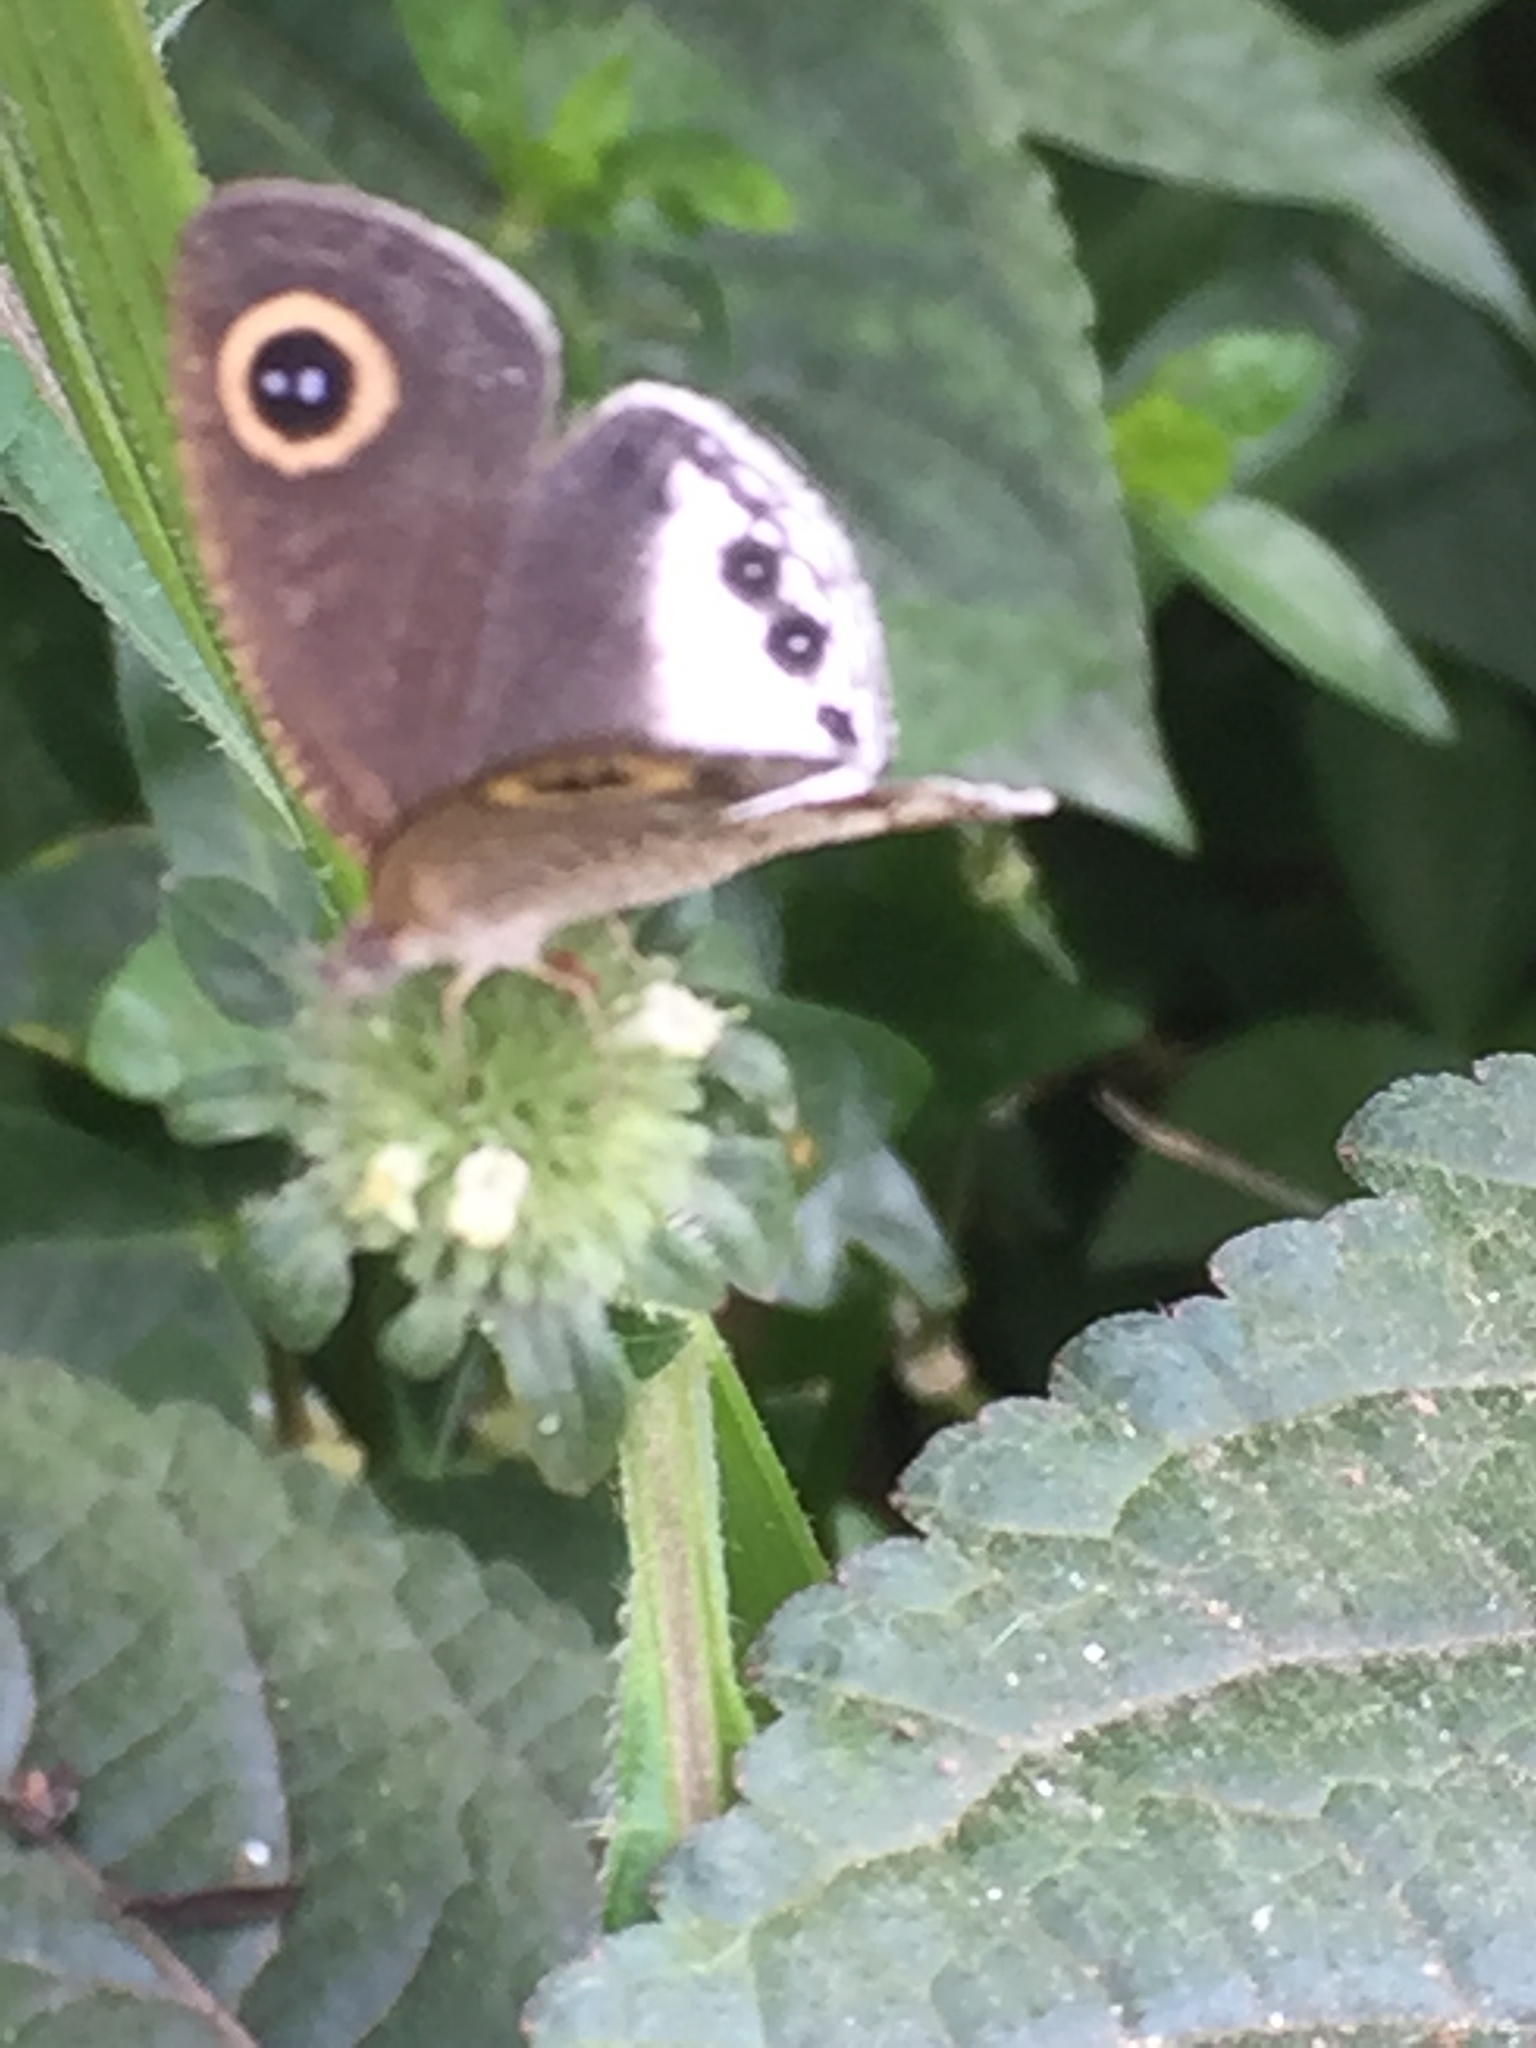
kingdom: Animalia
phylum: Arthropoda
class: Insecta
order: Lepidoptera
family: Nymphalidae
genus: Ypthima
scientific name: Ypthima ceylonica
